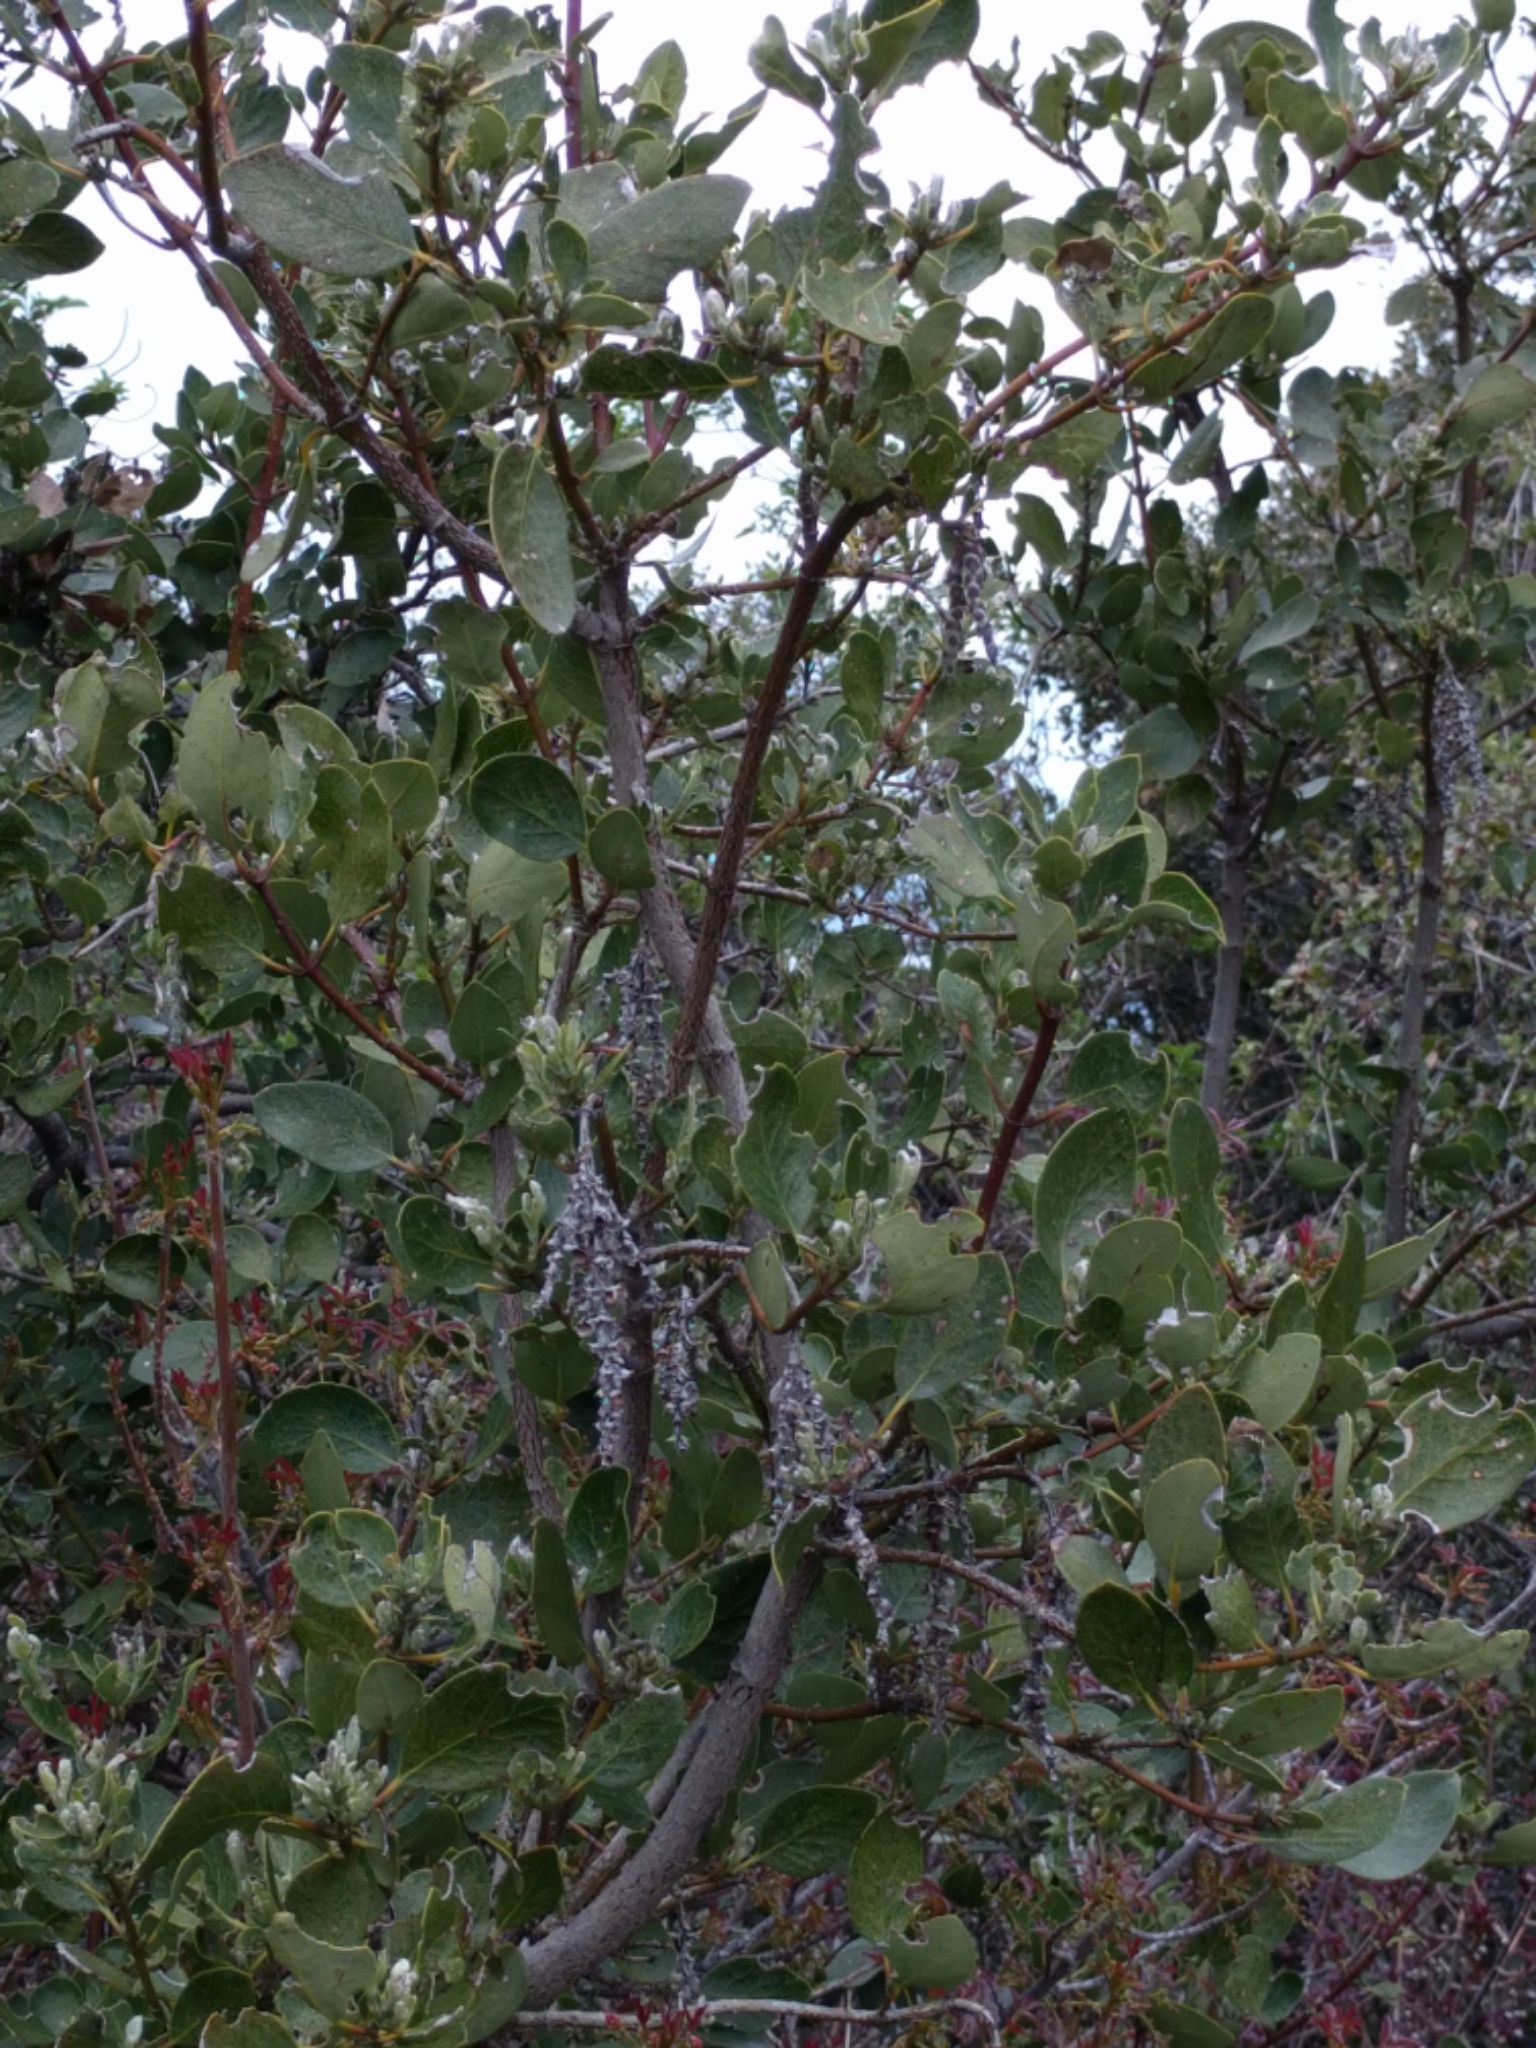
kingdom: Plantae
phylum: Tracheophyta
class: Magnoliopsida
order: Garryales
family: Garryaceae
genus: Garrya
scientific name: Garrya flavescens
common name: Ashy silk-tassel
